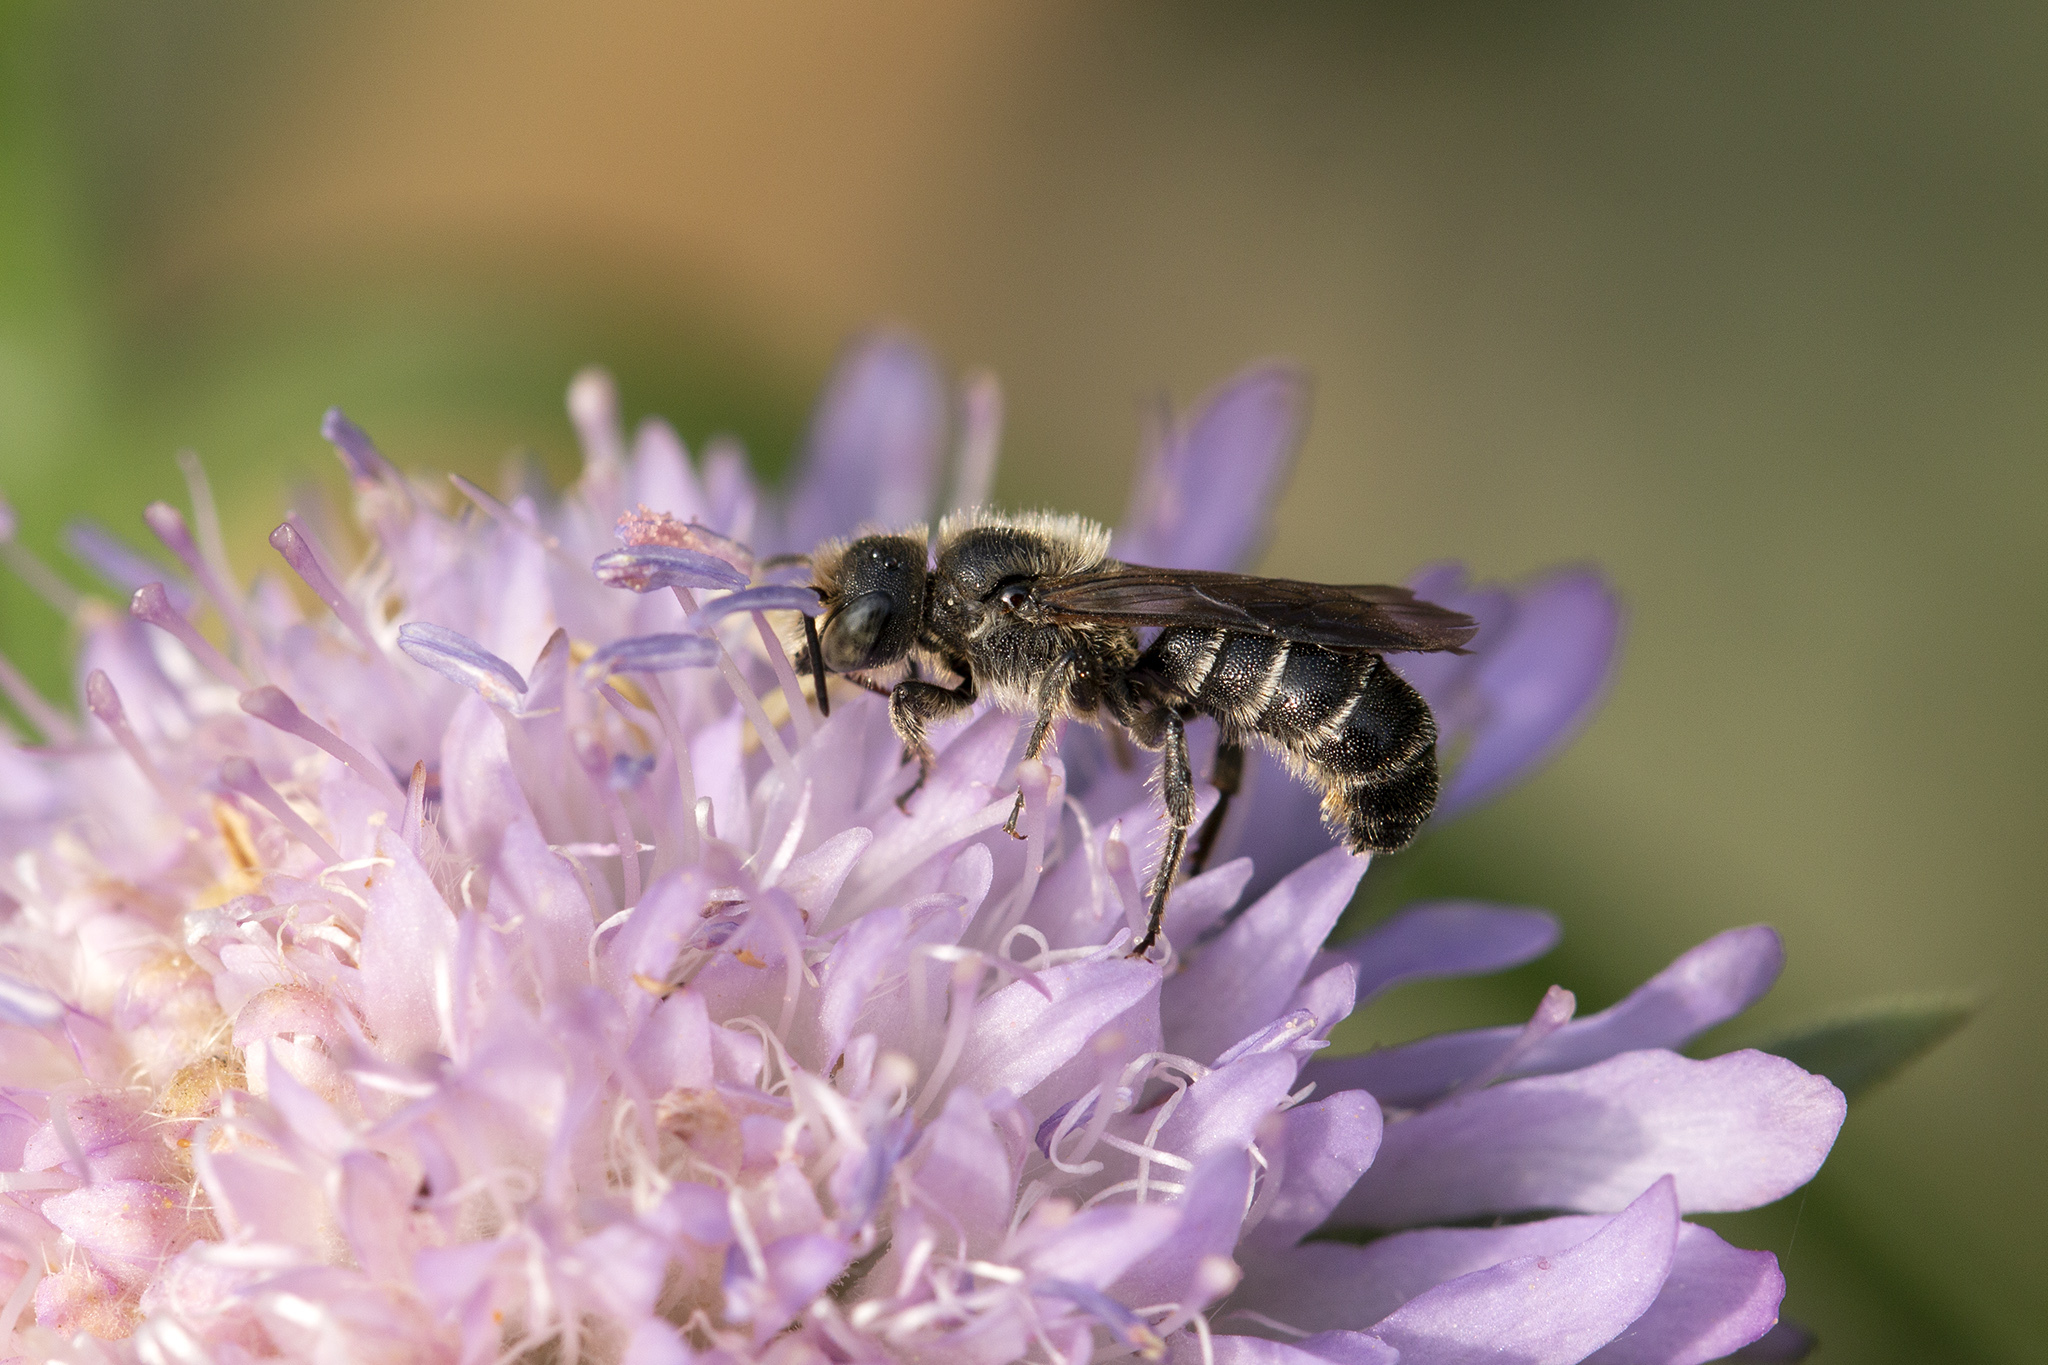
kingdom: Animalia
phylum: Arthropoda
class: Insecta
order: Hymenoptera
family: Megachilidae
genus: Chelostoma
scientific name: Chelostoma rapunculi
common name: Rampion scissor bee
